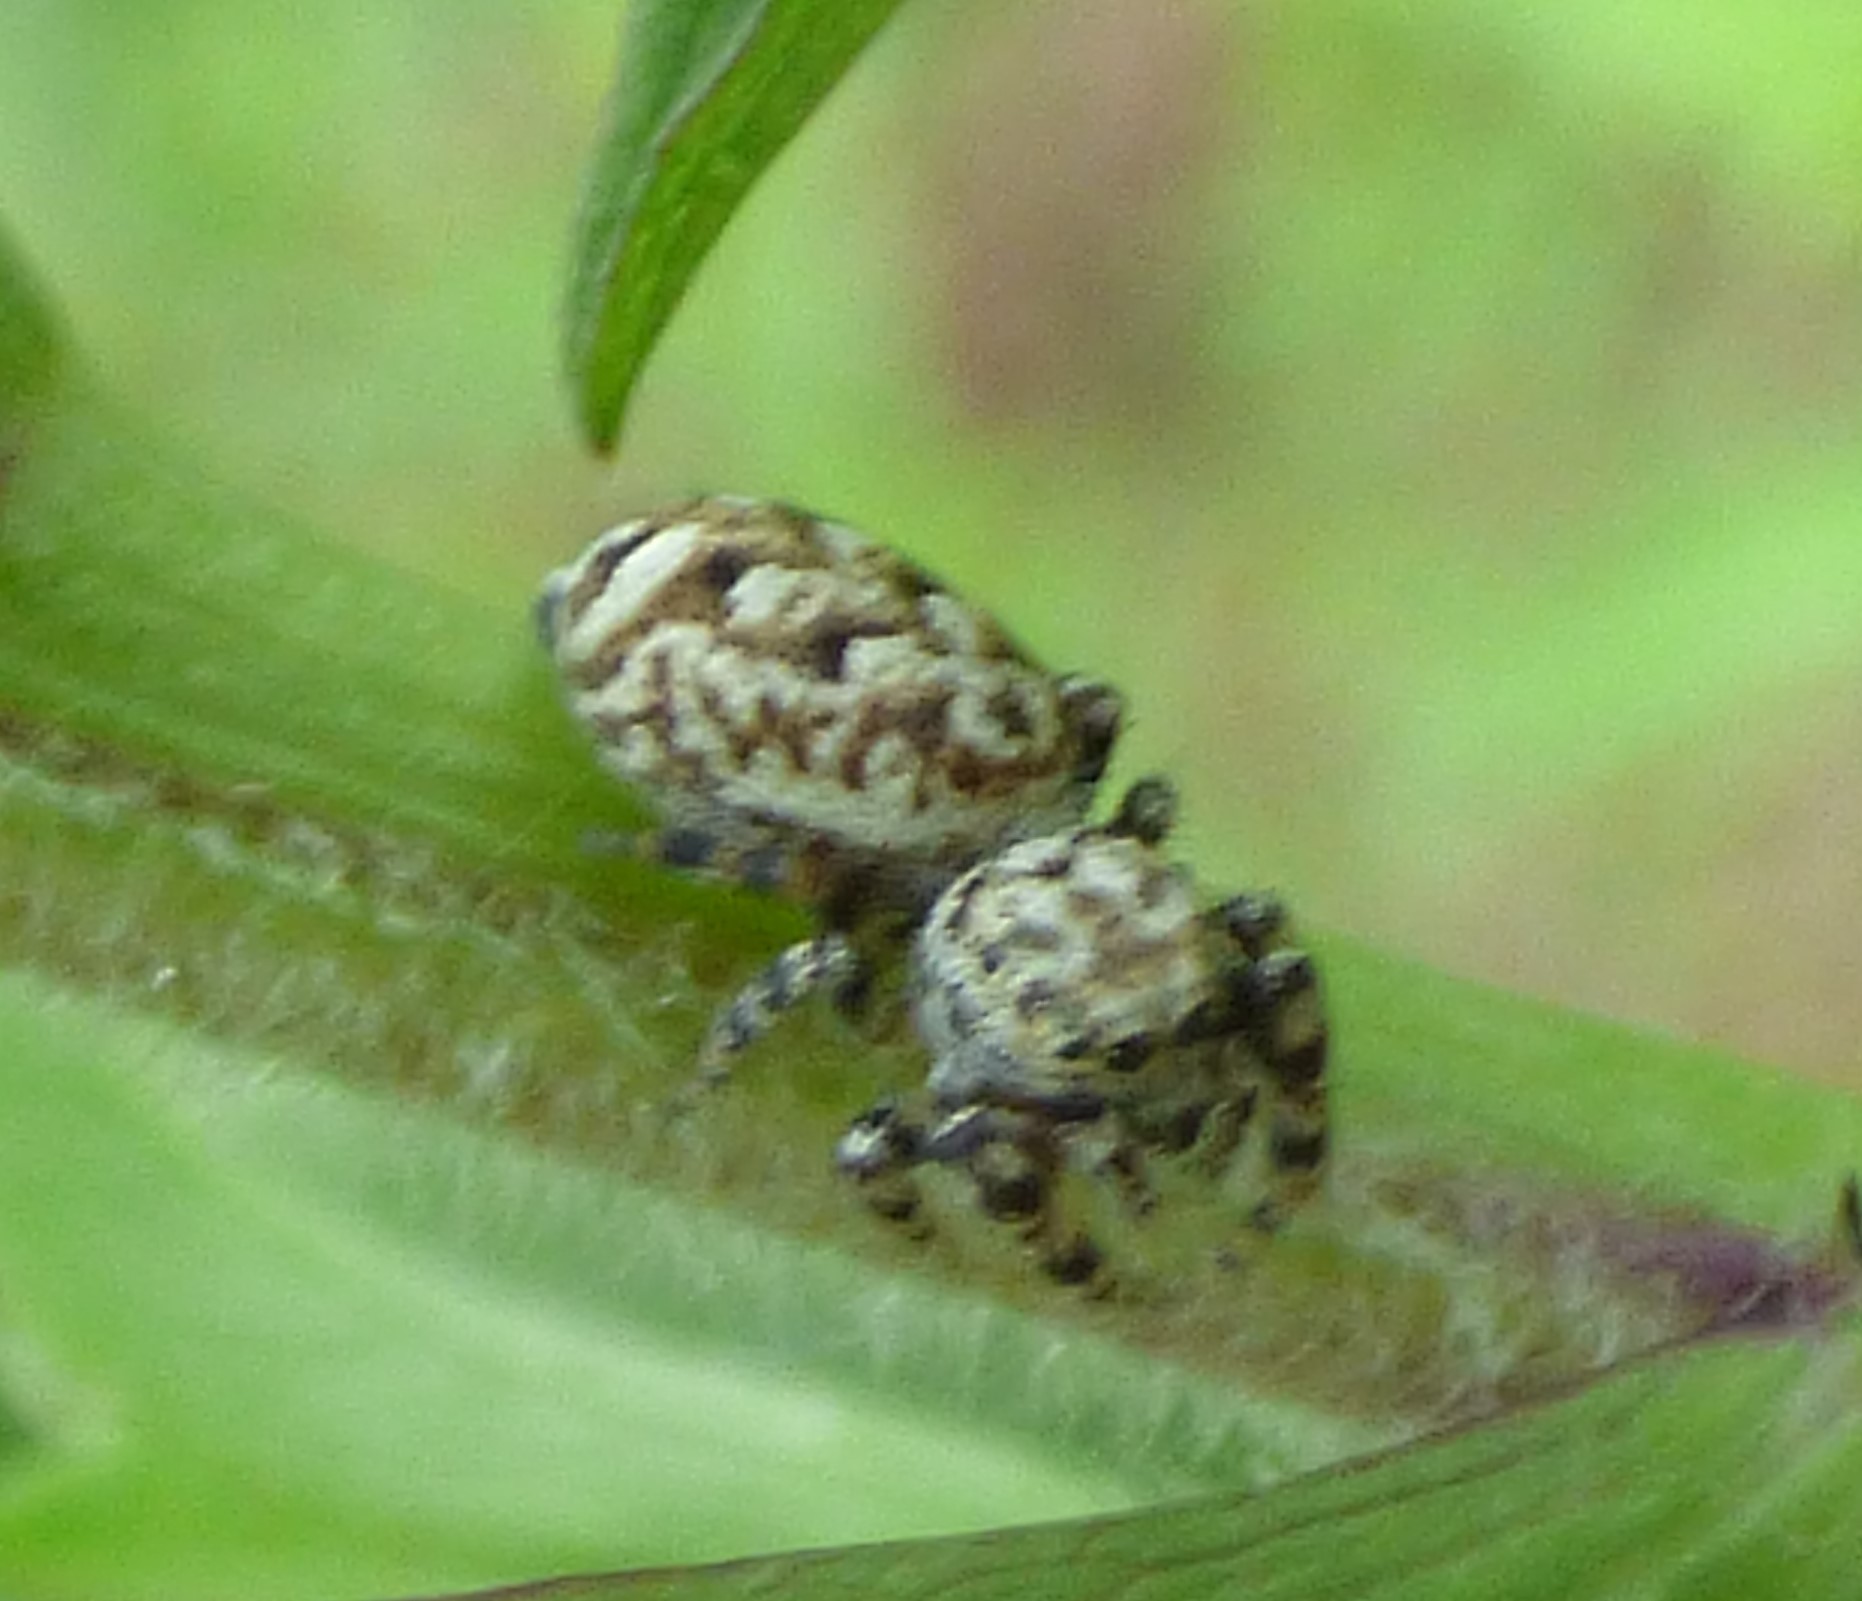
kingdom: Animalia
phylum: Arthropoda
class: Arachnida
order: Araneae
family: Salticidae
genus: Pelegrina
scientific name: Pelegrina galathea
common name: Jumping spiders
